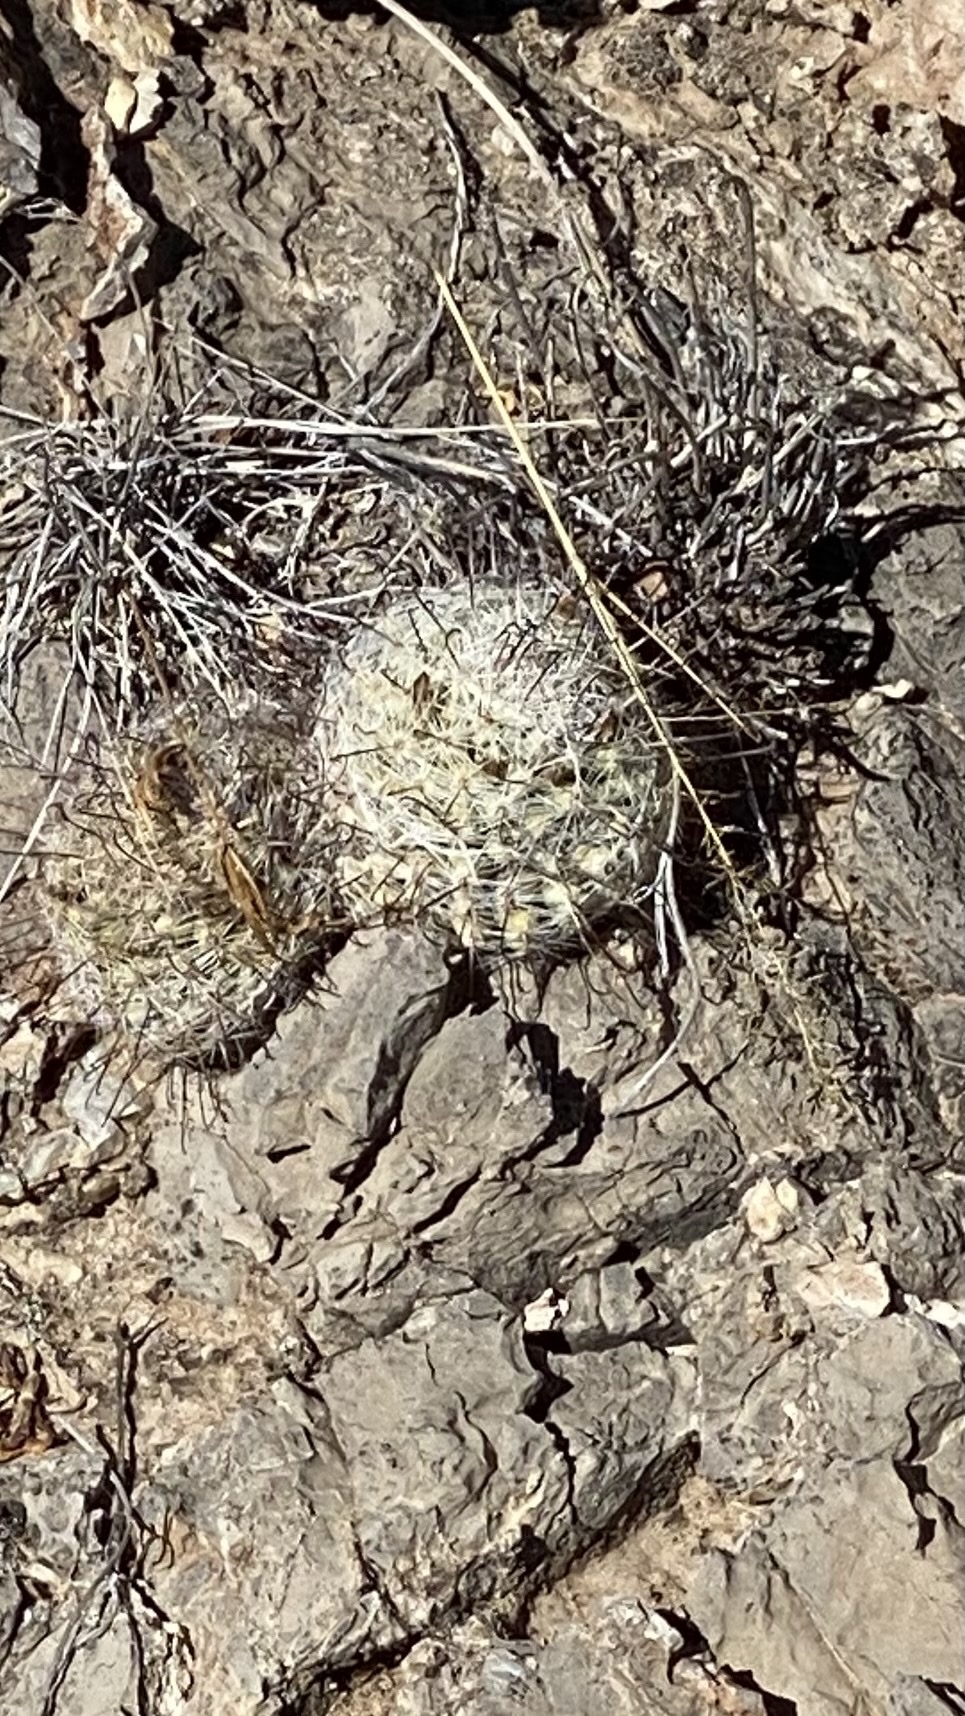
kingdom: Plantae
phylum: Tracheophyta
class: Magnoliopsida
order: Caryophyllales
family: Cactaceae
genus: Cochemiea
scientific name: Cochemiea grahamii
